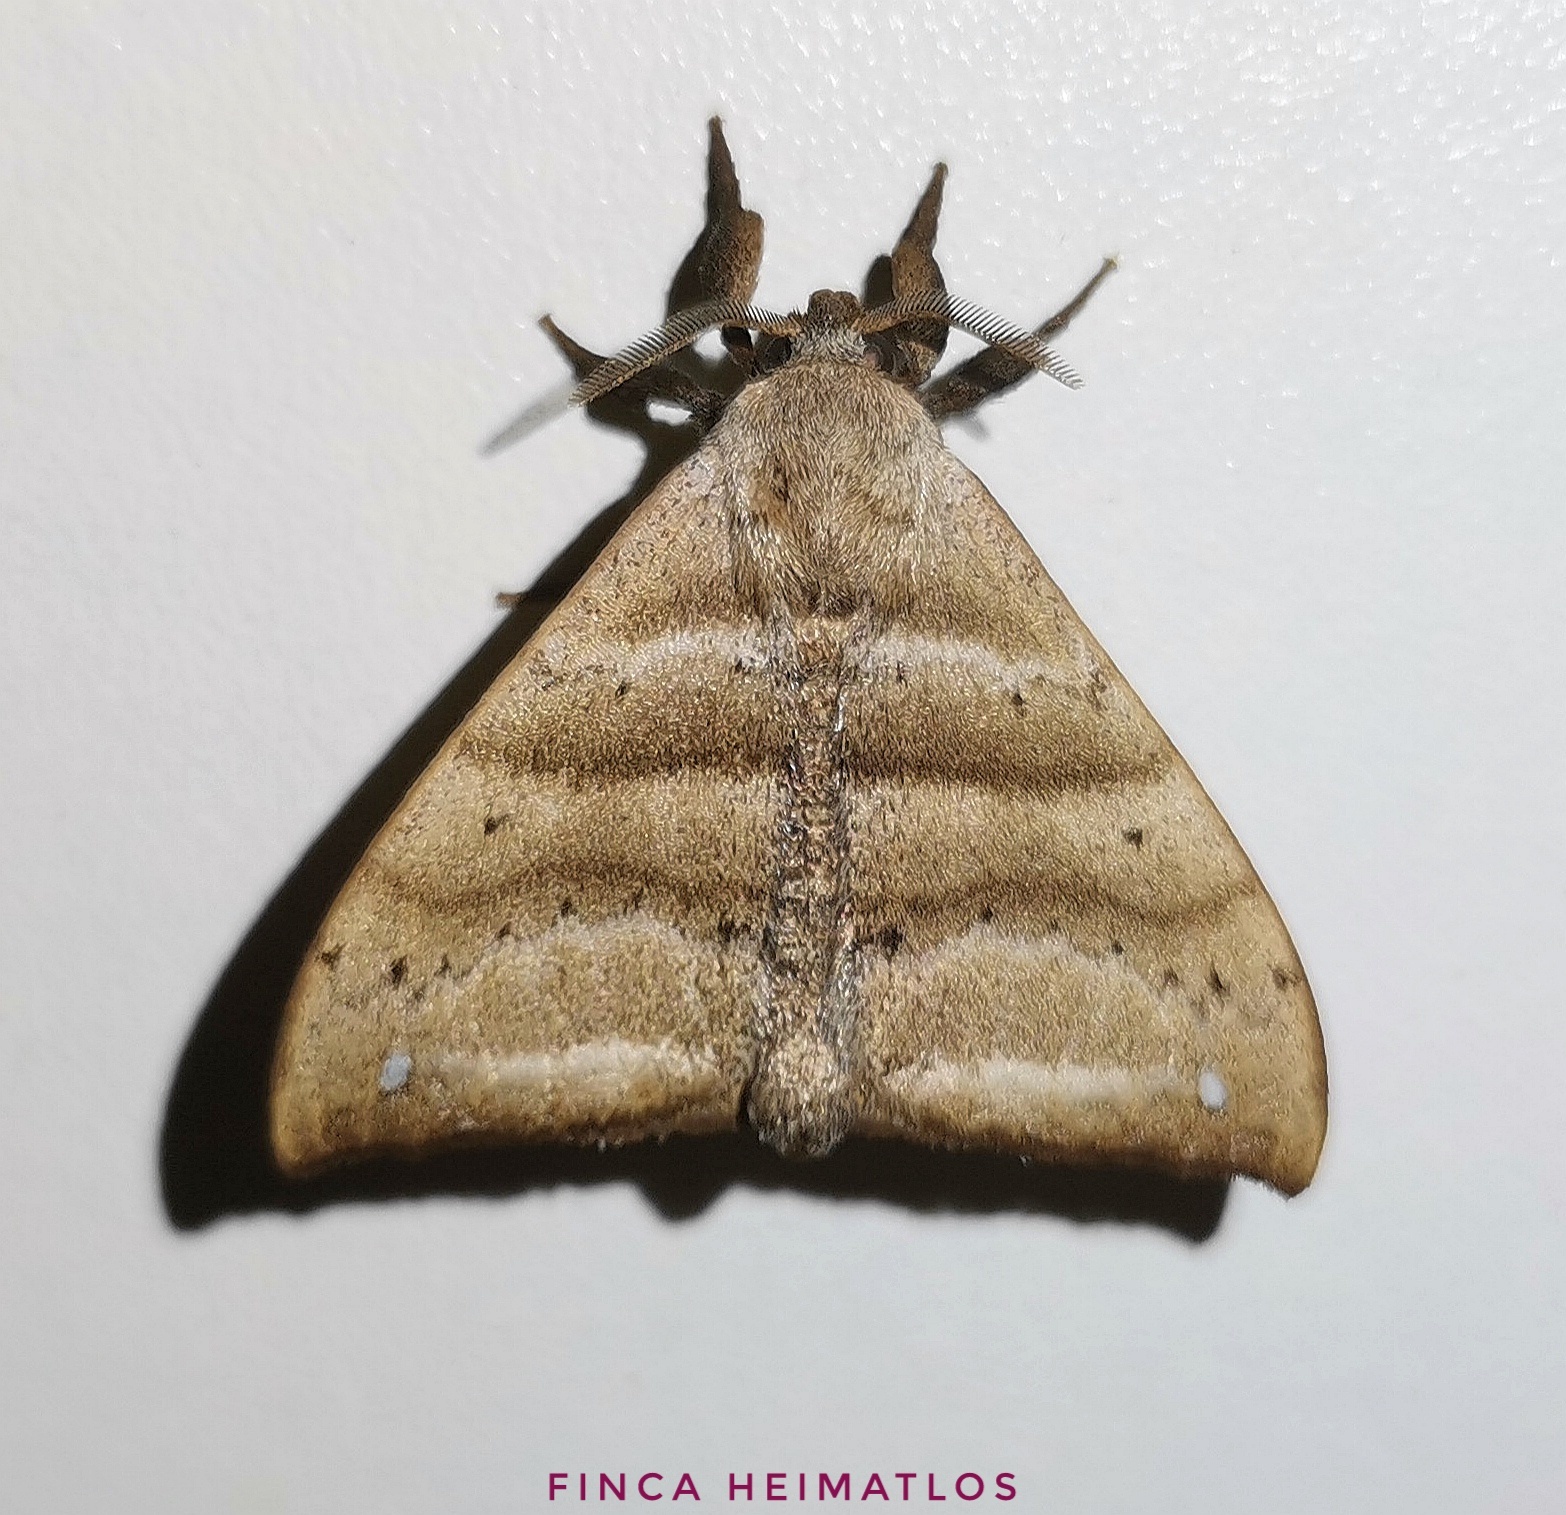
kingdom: Animalia
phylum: Arthropoda
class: Insecta
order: Lepidoptera
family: Apatelodidae
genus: Falcatelodes
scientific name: Falcatelodes anava
